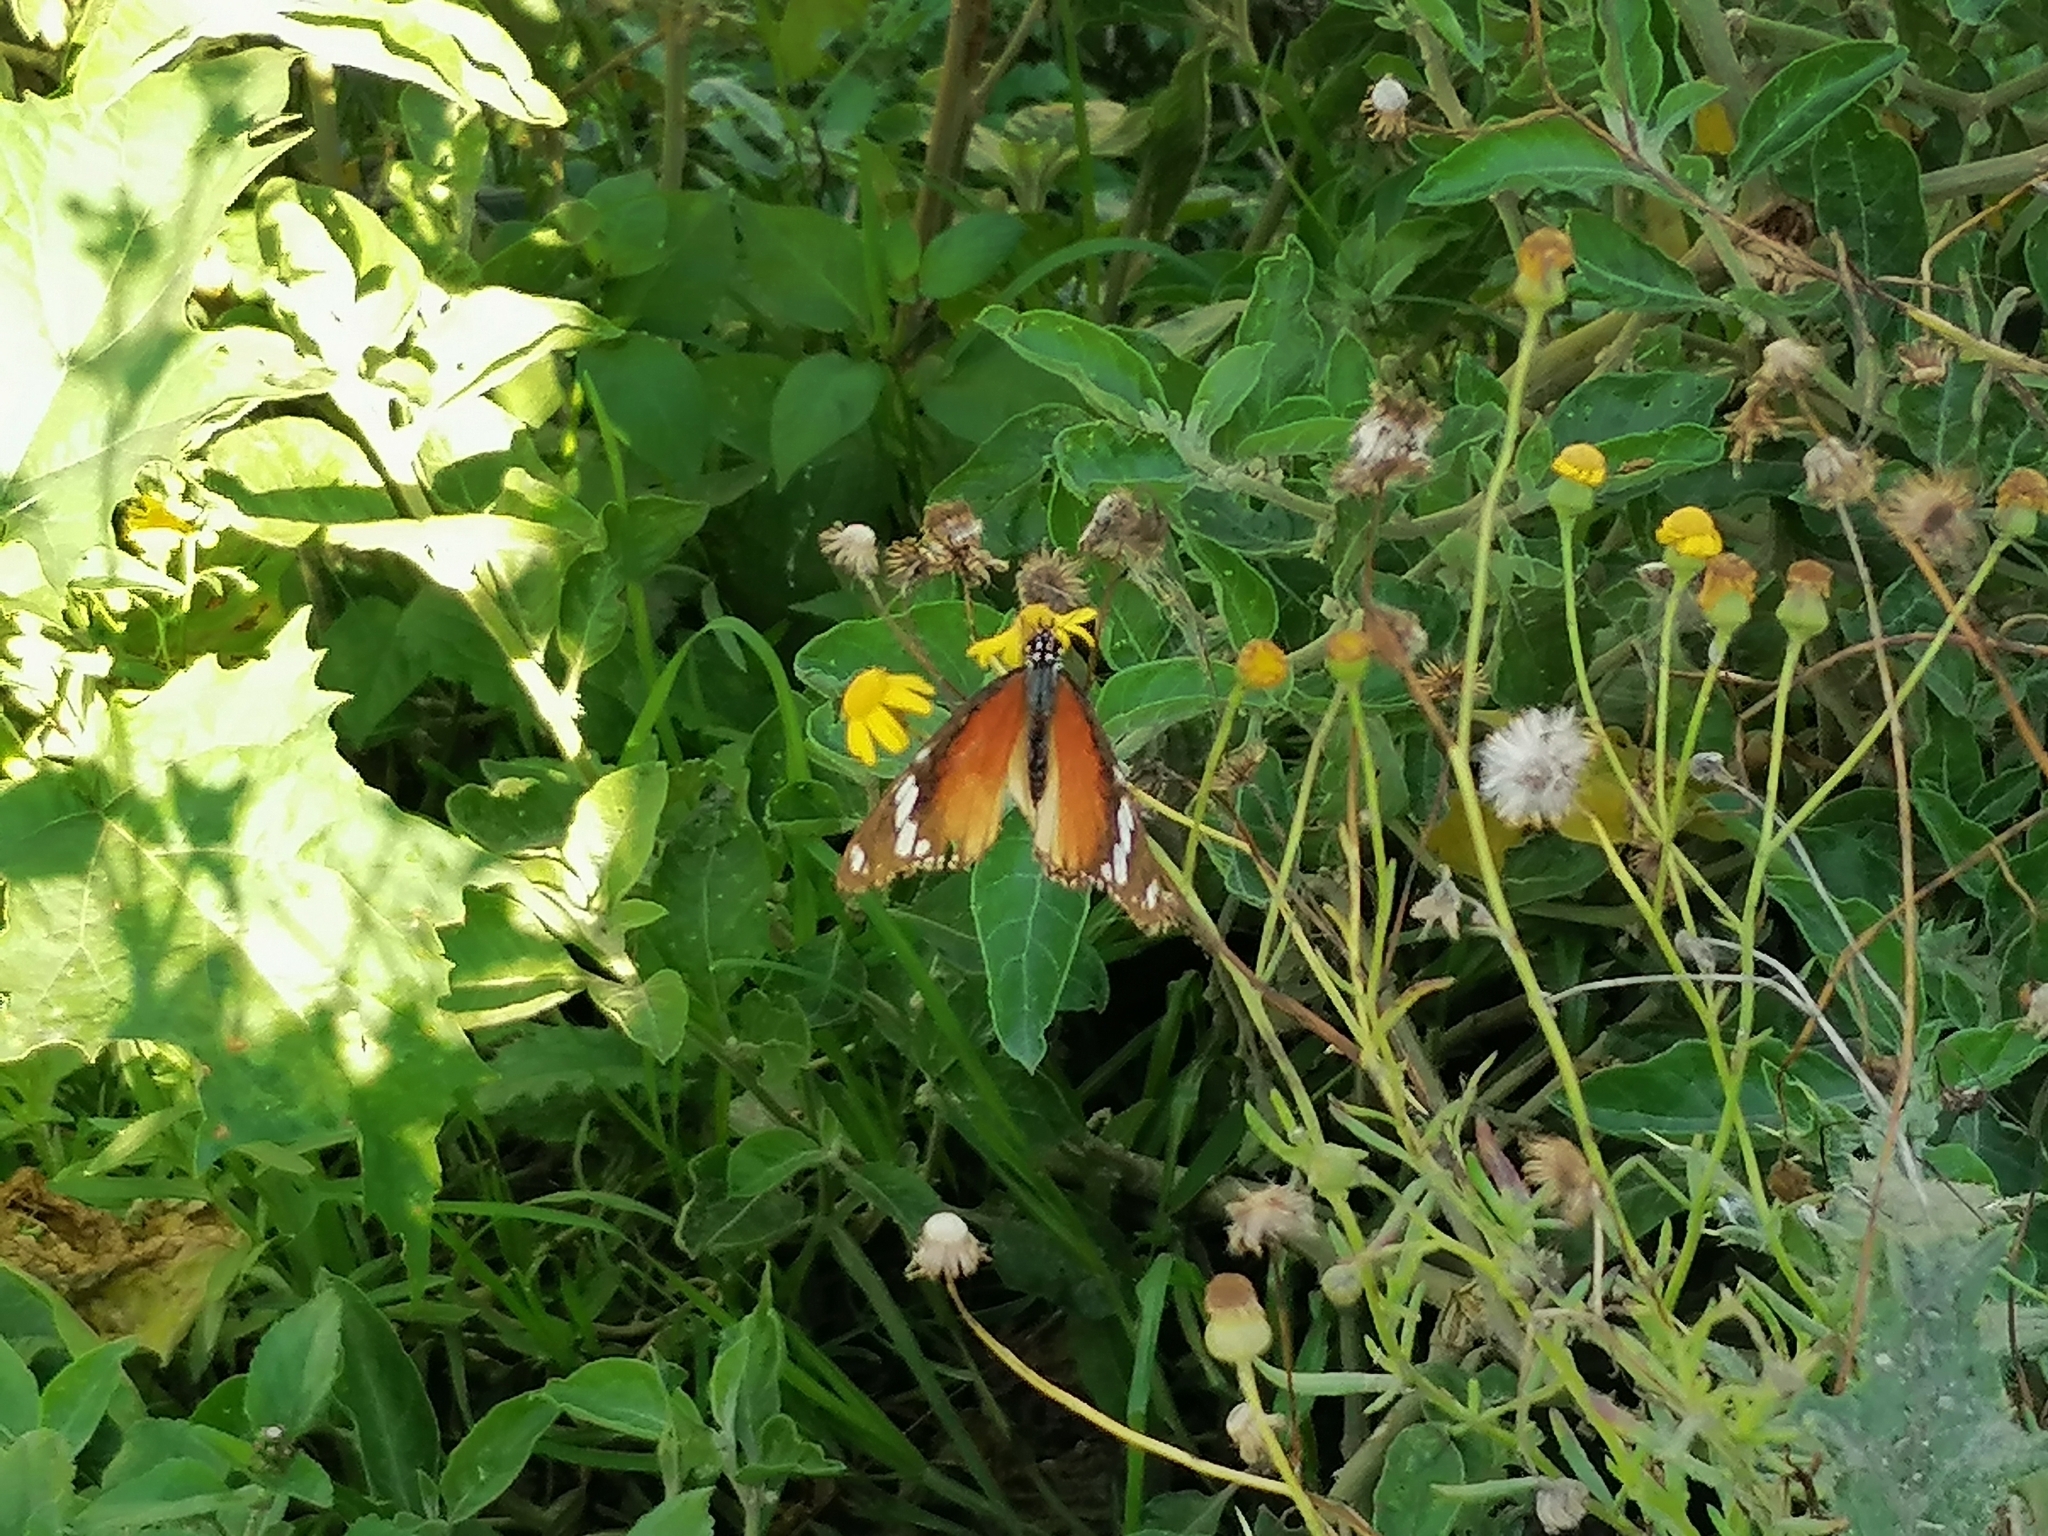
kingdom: Animalia
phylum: Arthropoda
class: Insecta
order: Lepidoptera
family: Nymphalidae
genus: Hypolimnas
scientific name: Hypolimnas misippus
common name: False plain tiger
